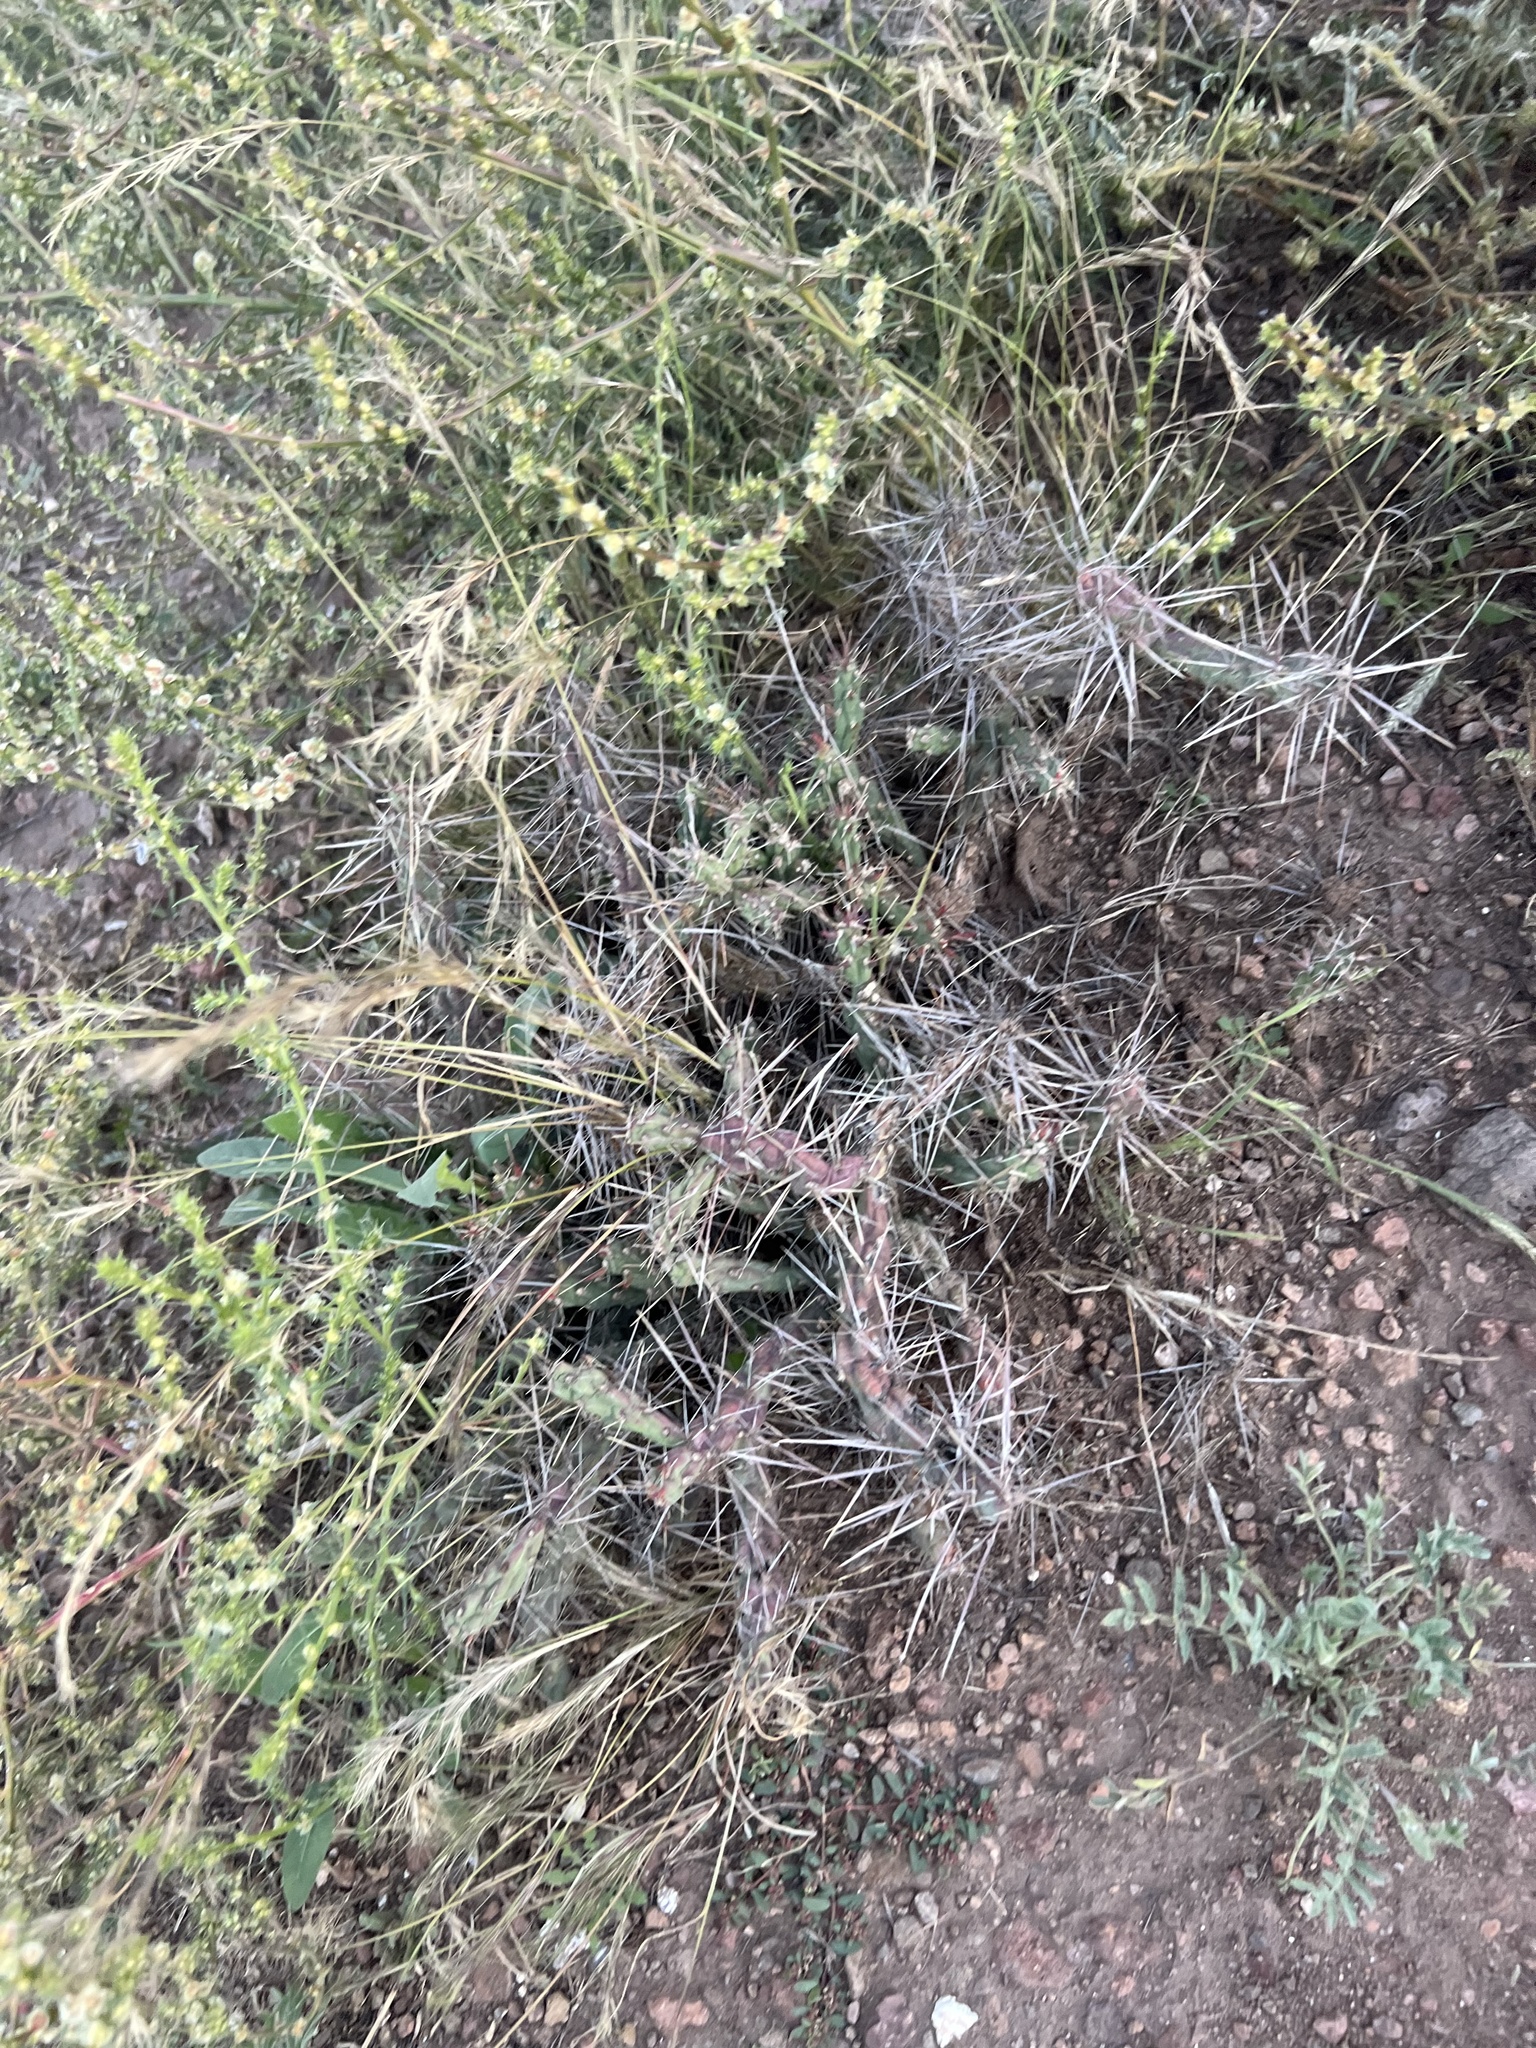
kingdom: Plantae
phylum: Tracheophyta
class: Magnoliopsida
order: Caryophyllales
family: Cactaceae
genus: Cylindropuntia
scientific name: Cylindropuntia davisii
